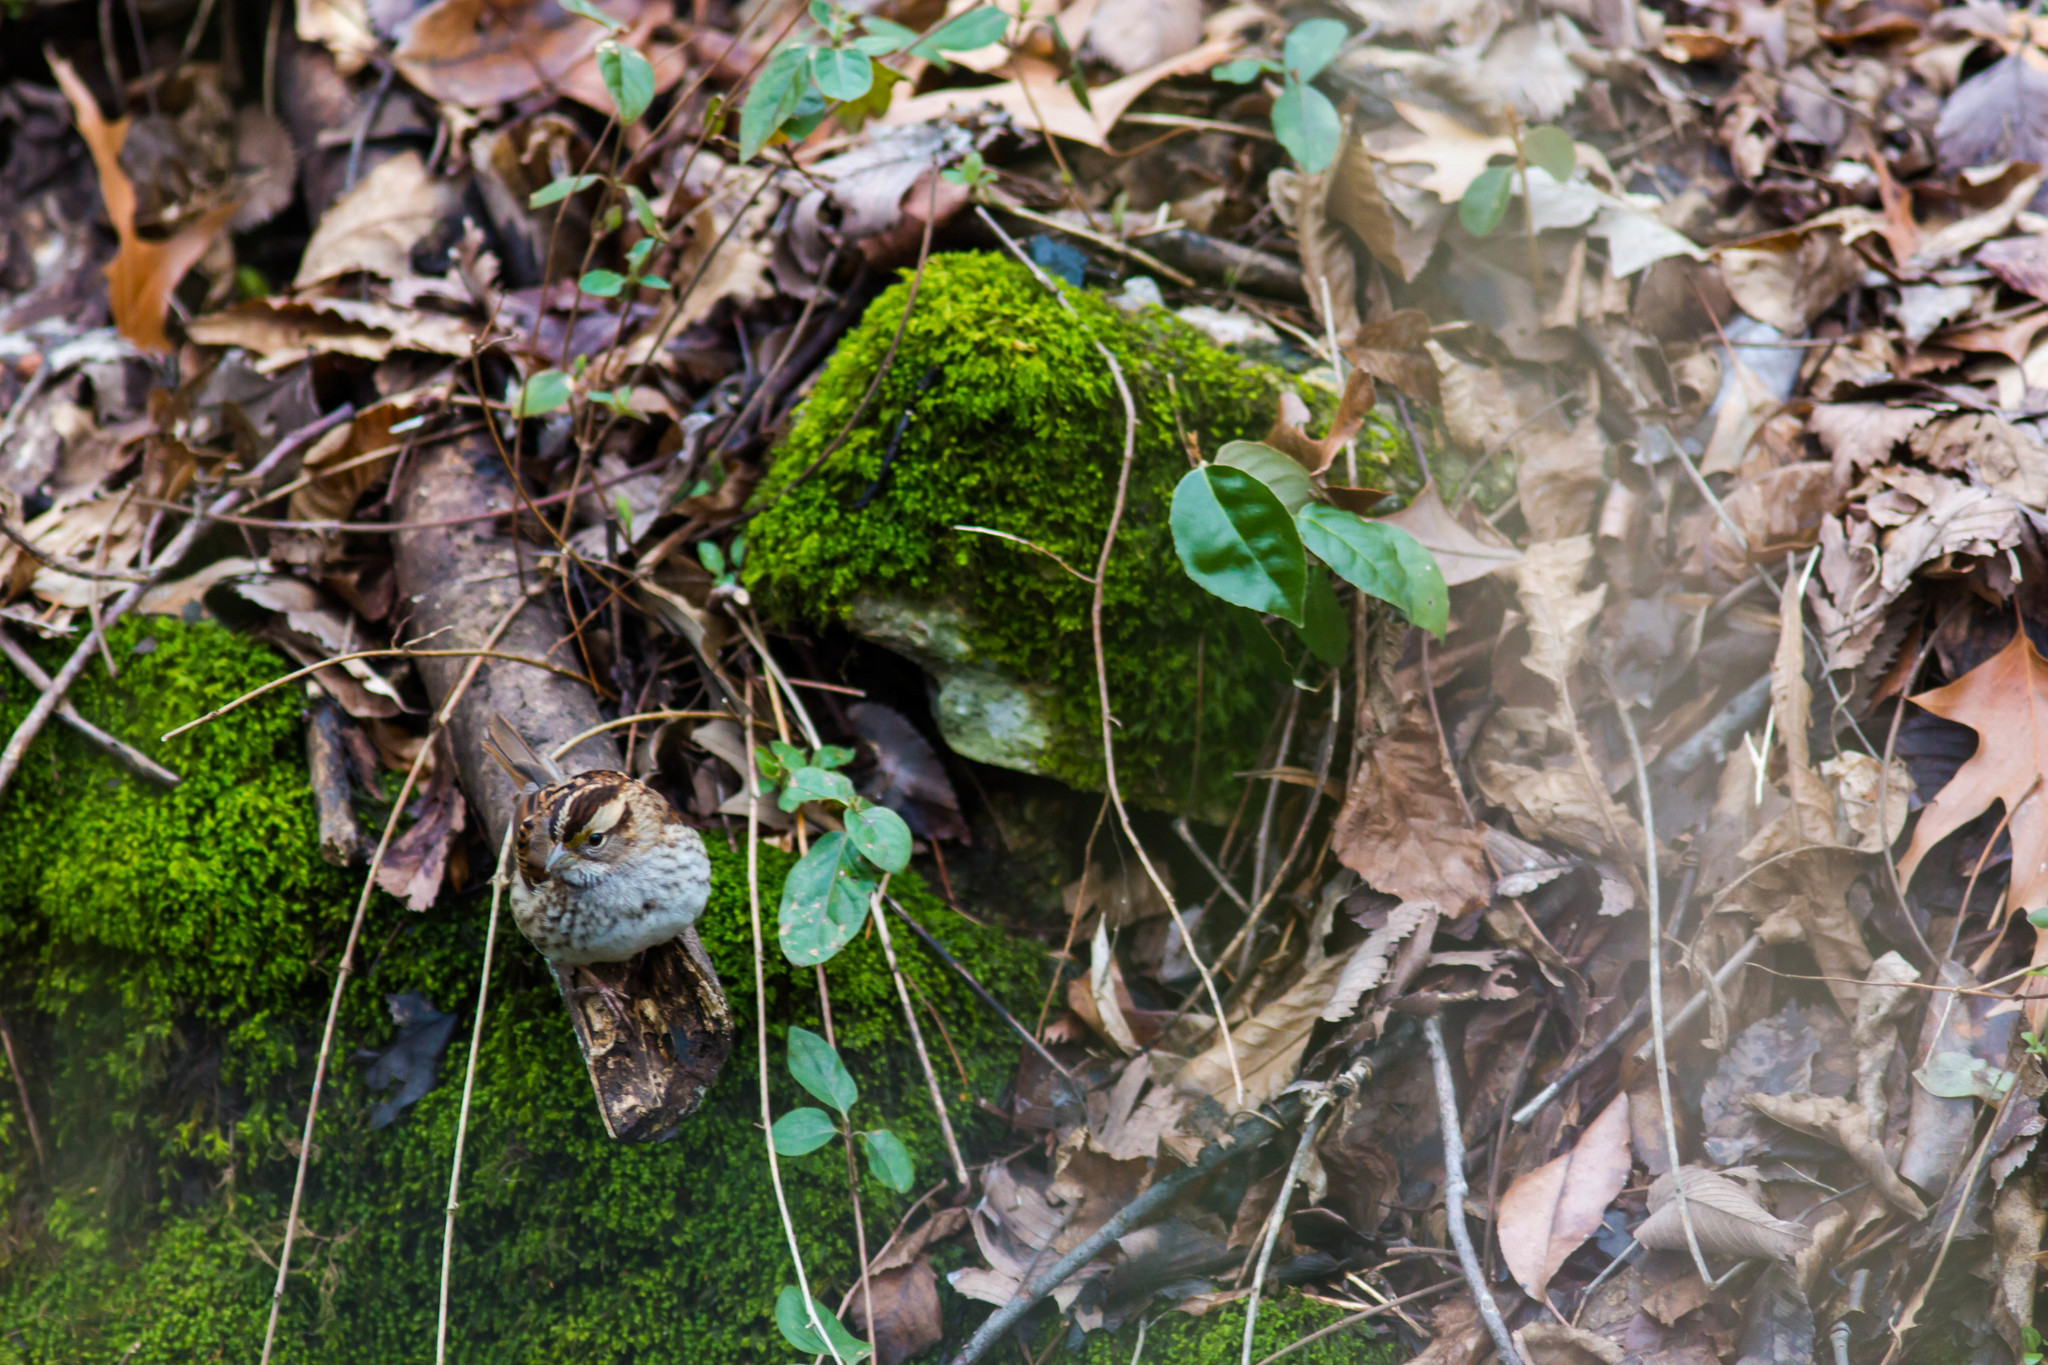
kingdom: Animalia
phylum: Chordata
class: Aves
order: Passeriformes
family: Passerellidae
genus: Zonotrichia
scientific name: Zonotrichia albicollis
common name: White-throated sparrow
